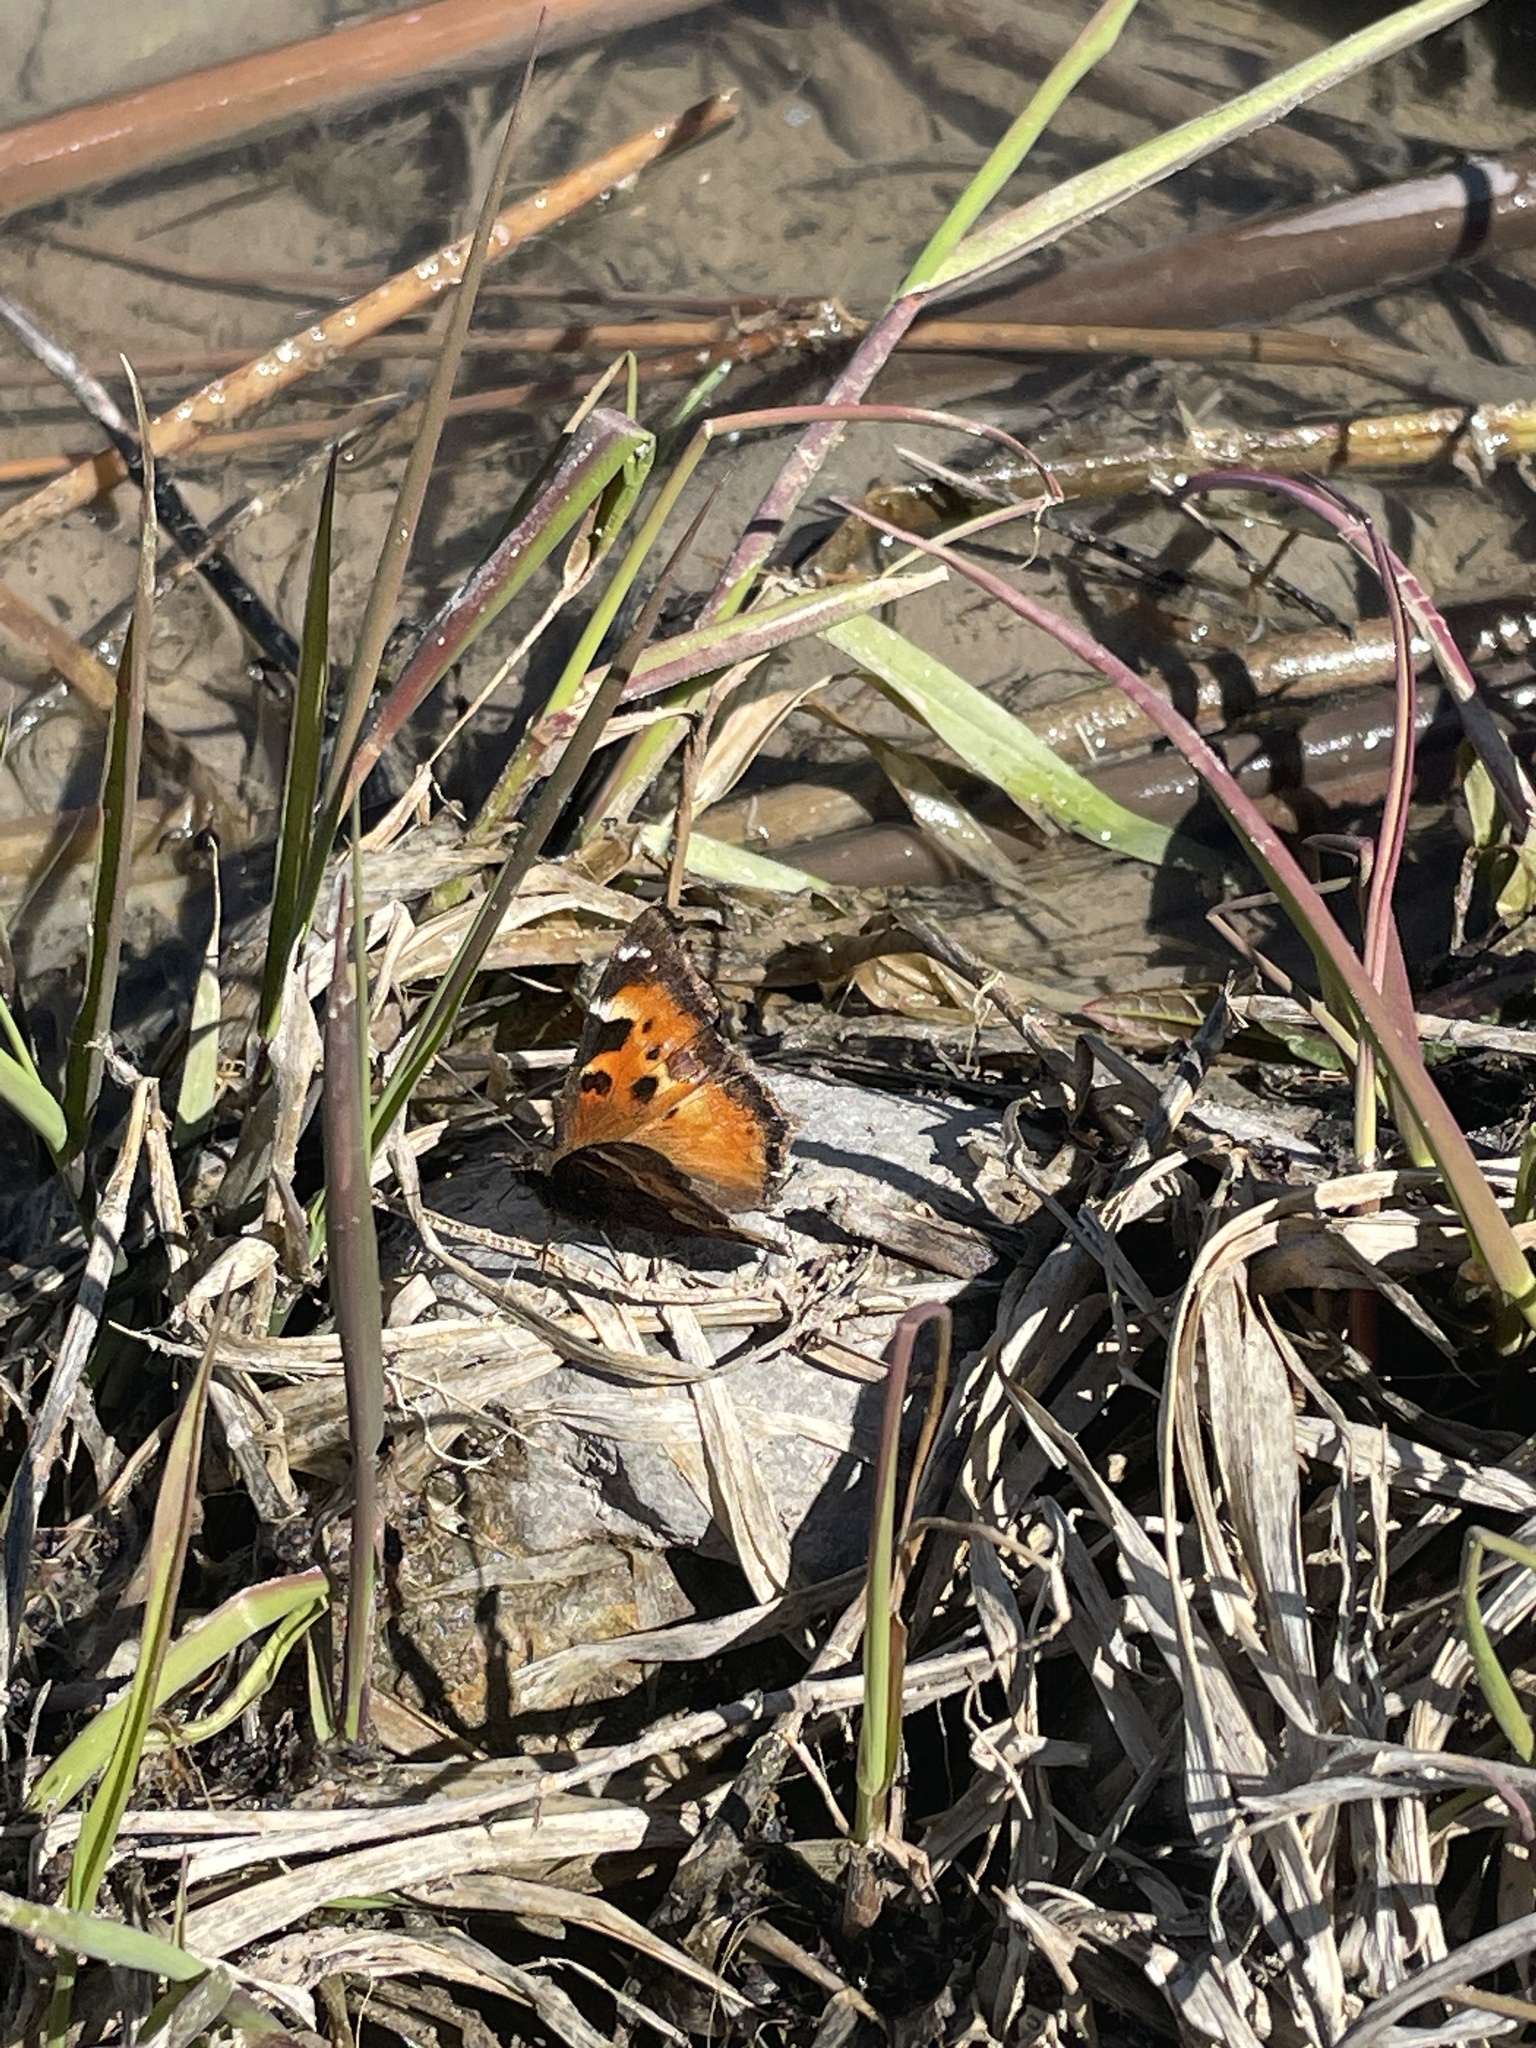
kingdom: Animalia
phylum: Arthropoda
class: Insecta
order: Lepidoptera
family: Nymphalidae
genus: Nymphalis
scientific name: Nymphalis californica
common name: California tortoiseshell
